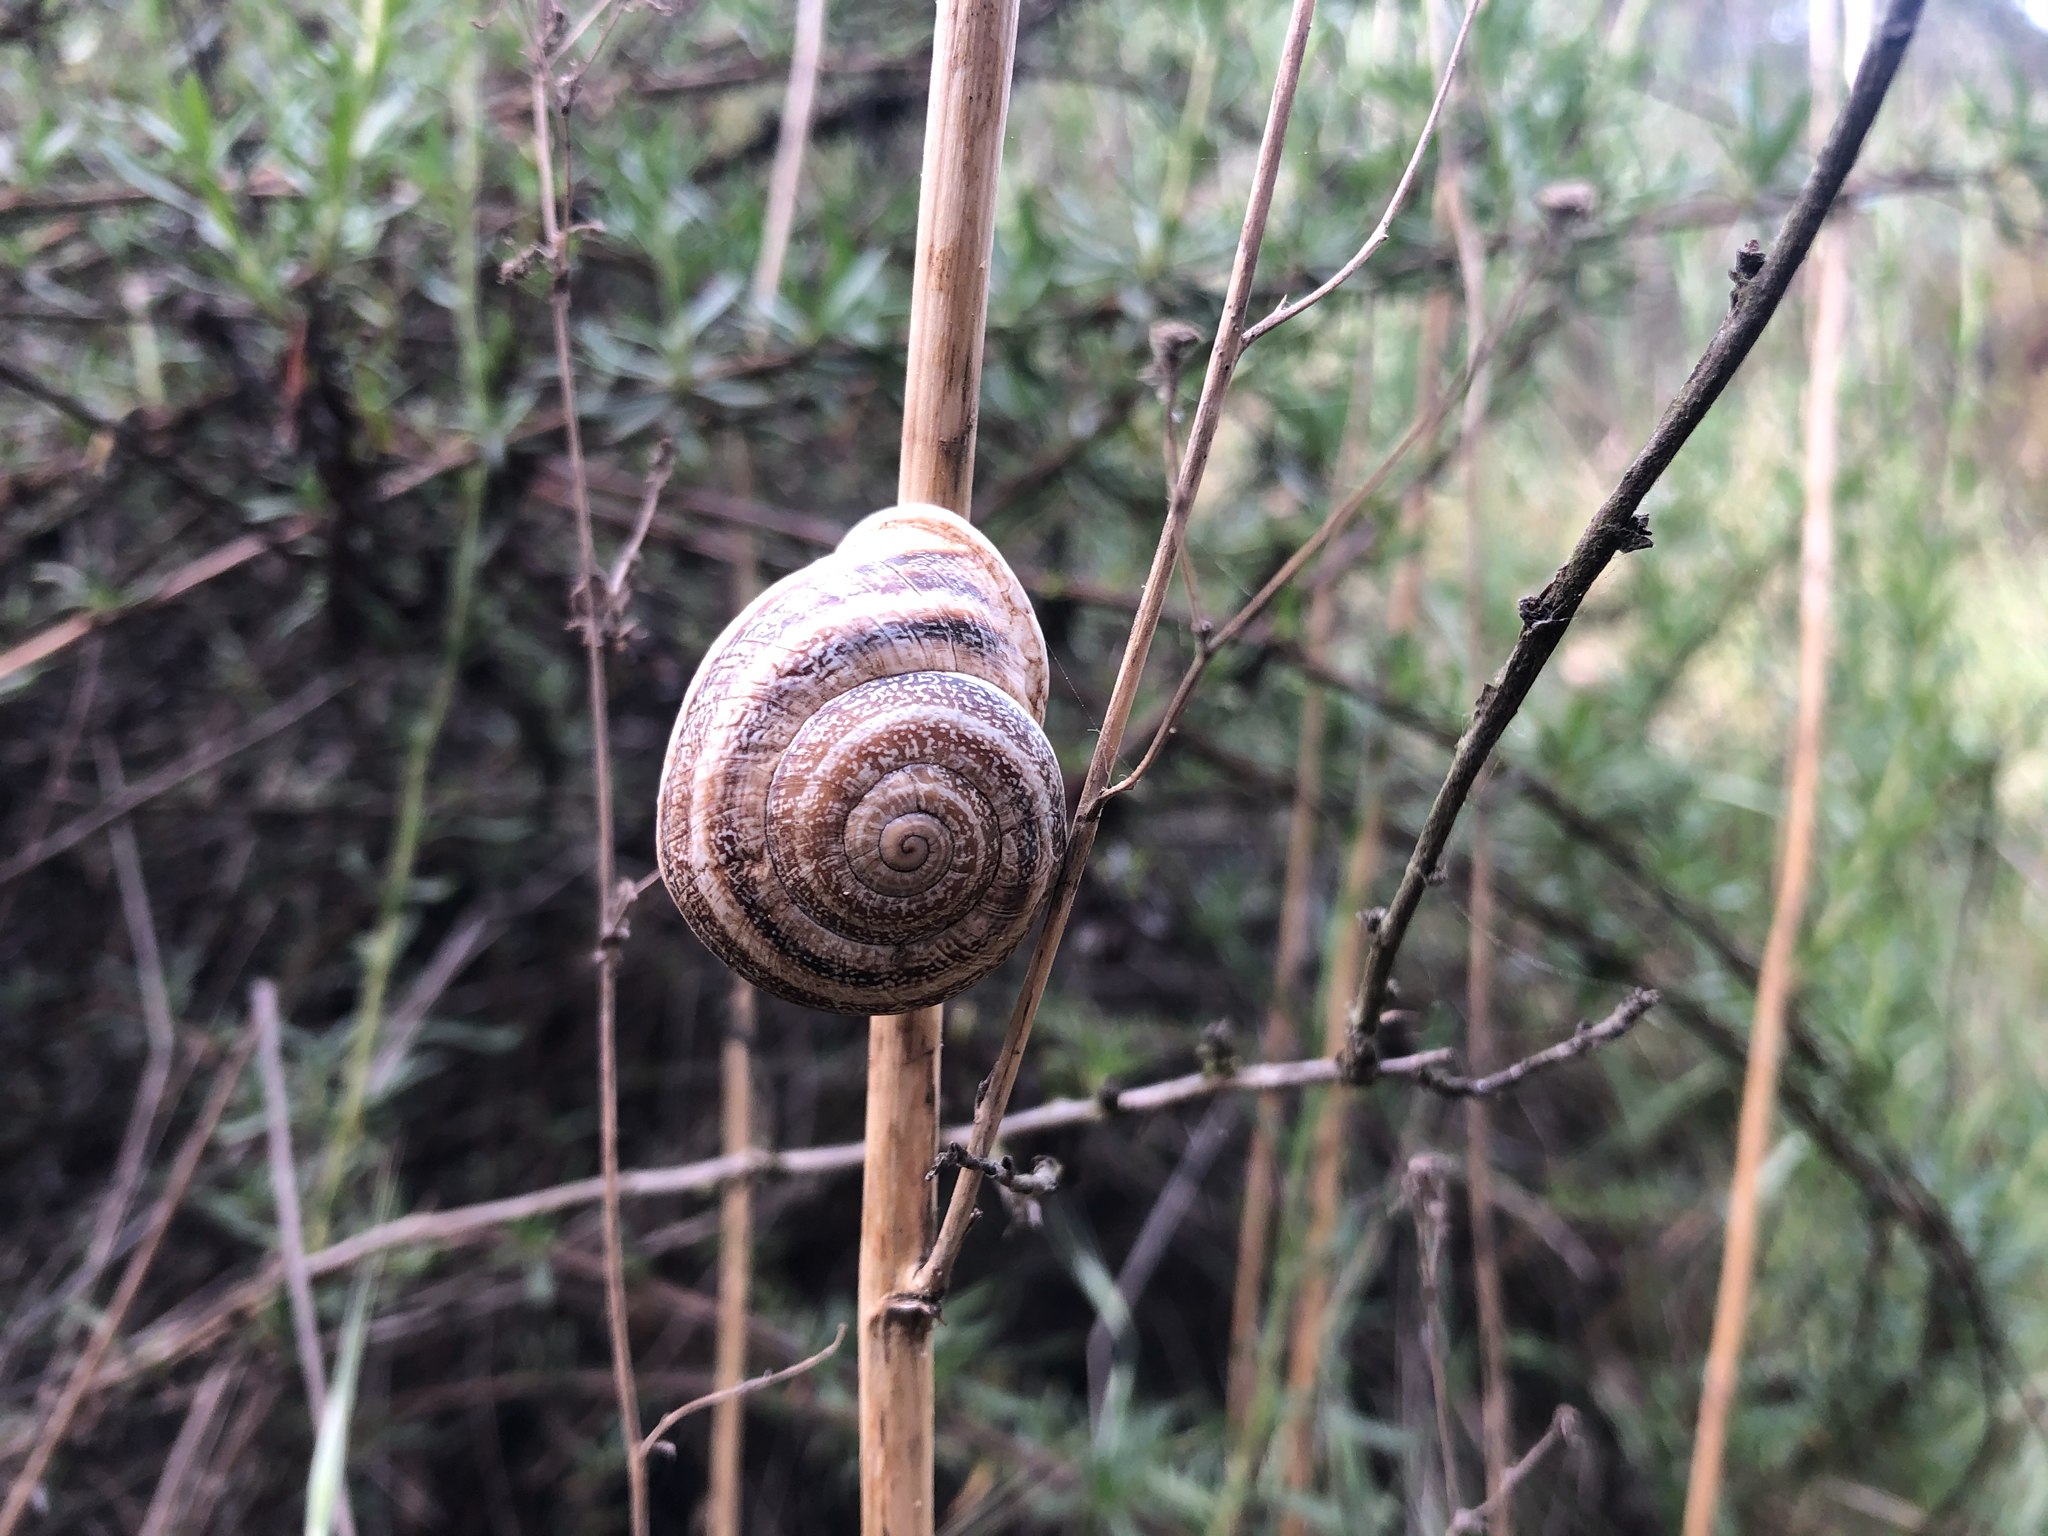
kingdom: Animalia
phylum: Mollusca
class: Gastropoda
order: Stylommatophora
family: Helicidae
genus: Otala
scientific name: Otala lactea
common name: Milk snail
